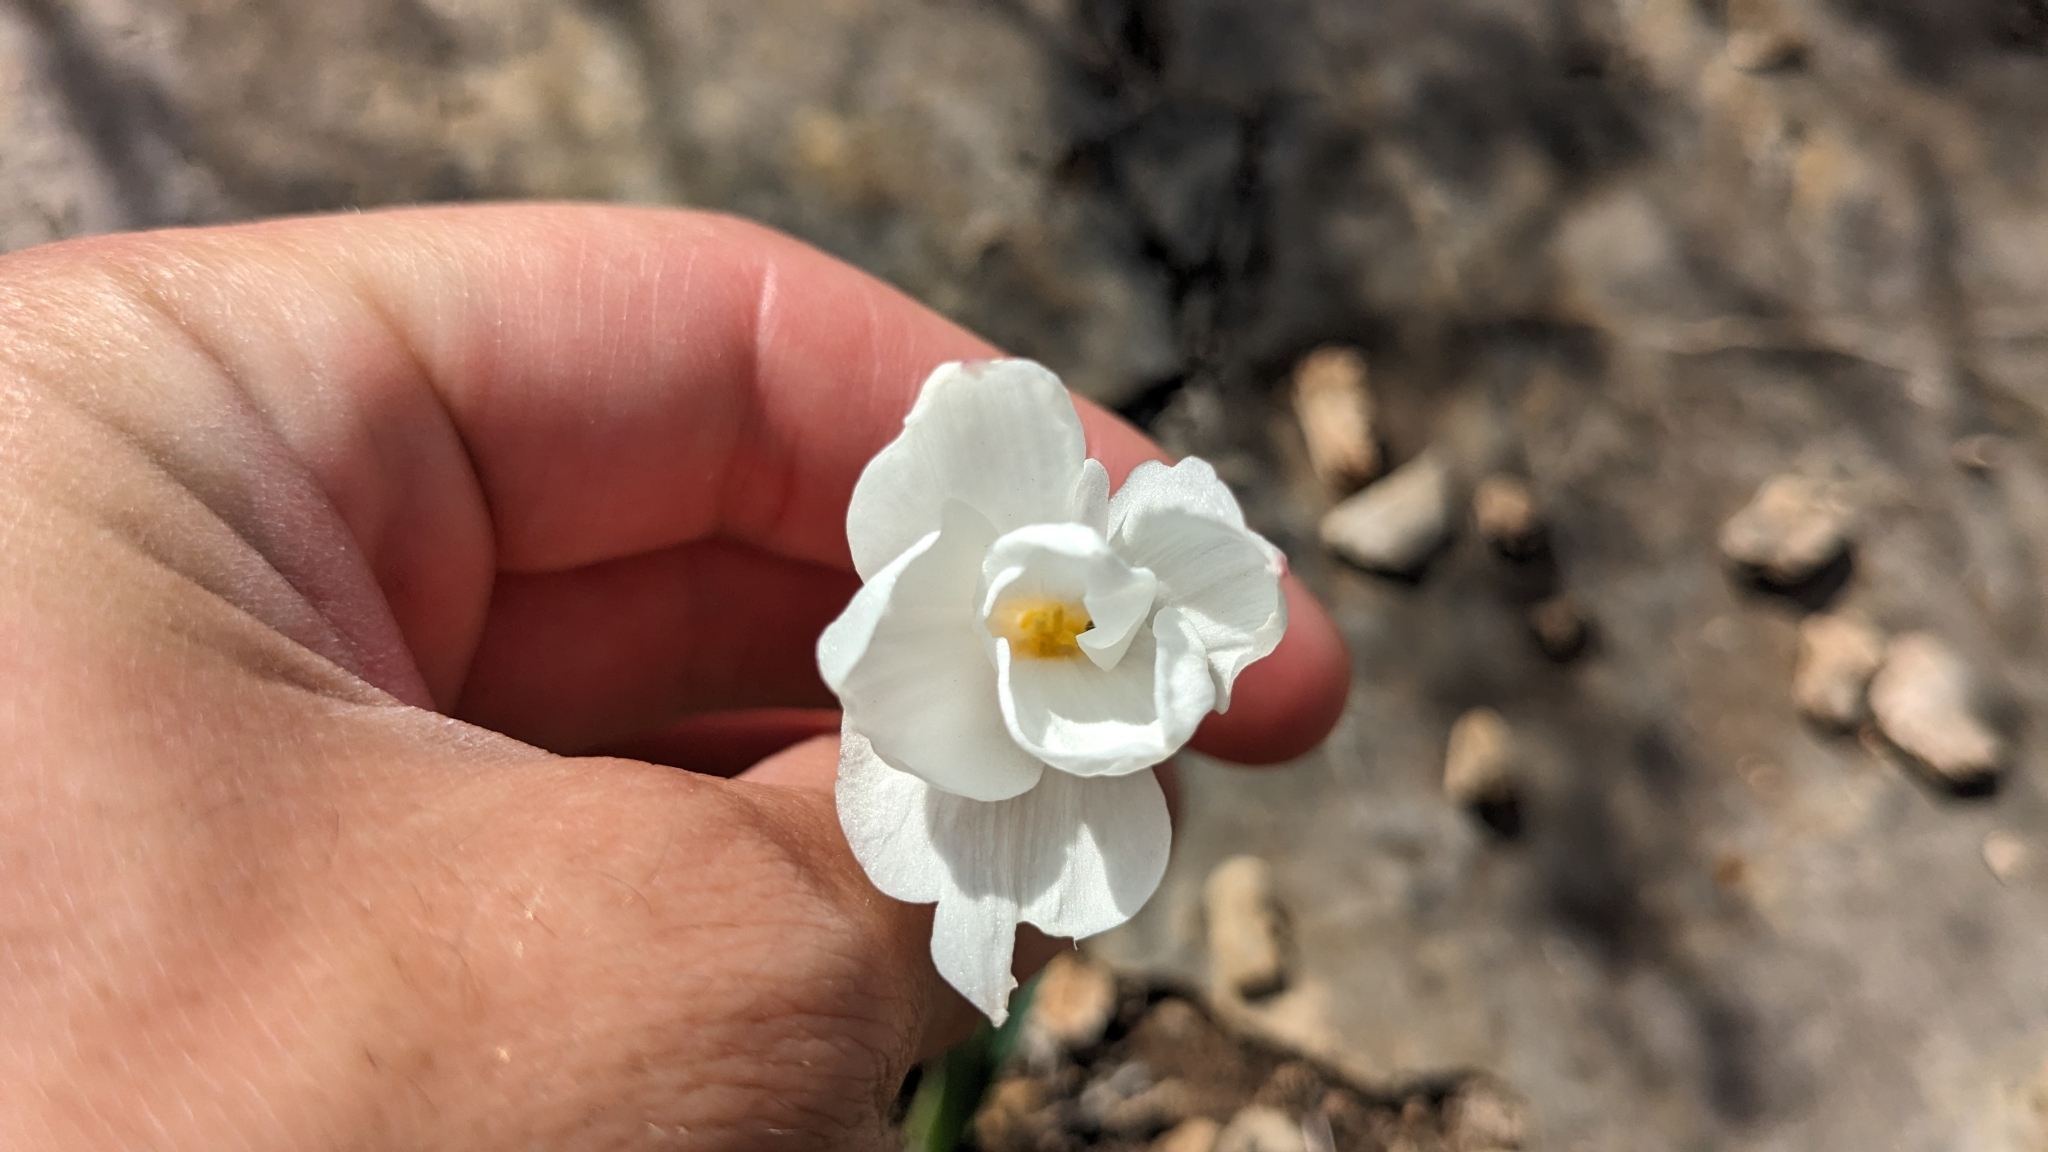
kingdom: Plantae
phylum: Tracheophyta
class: Liliopsida
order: Asparagales
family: Amaryllidaceae
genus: Zephyranthes
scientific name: Zephyranthes drummondii
